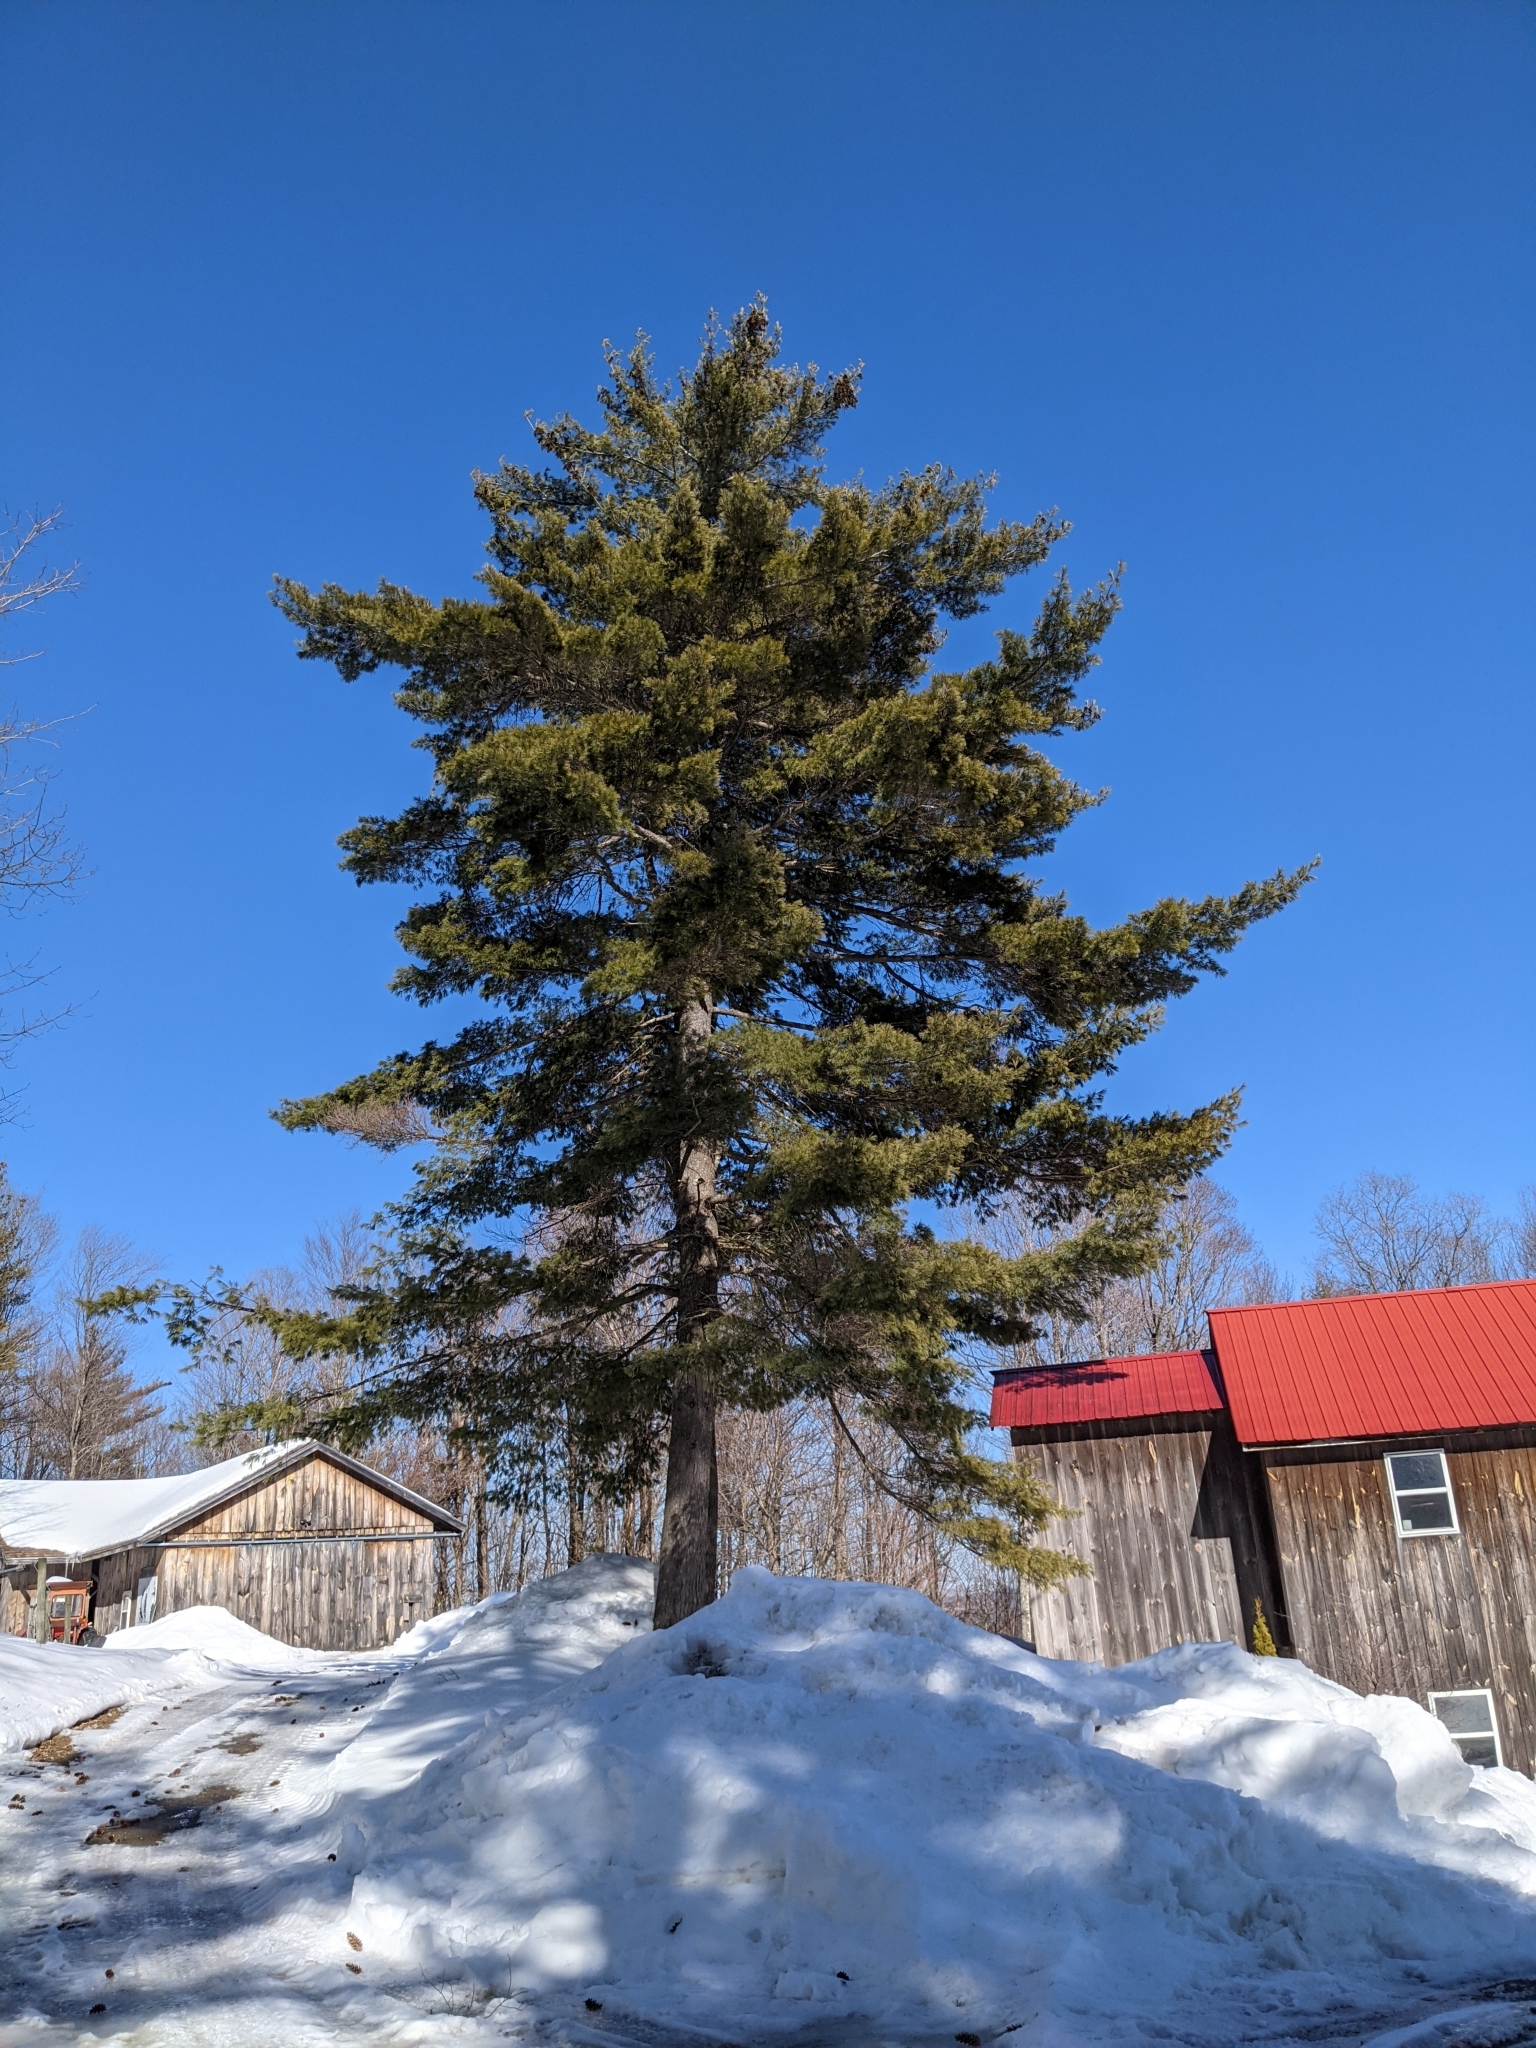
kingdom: Plantae
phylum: Tracheophyta
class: Pinopsida
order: Pinales
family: Pinaceae
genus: Pinus
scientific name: Pinus strobus
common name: Weymouth pine
